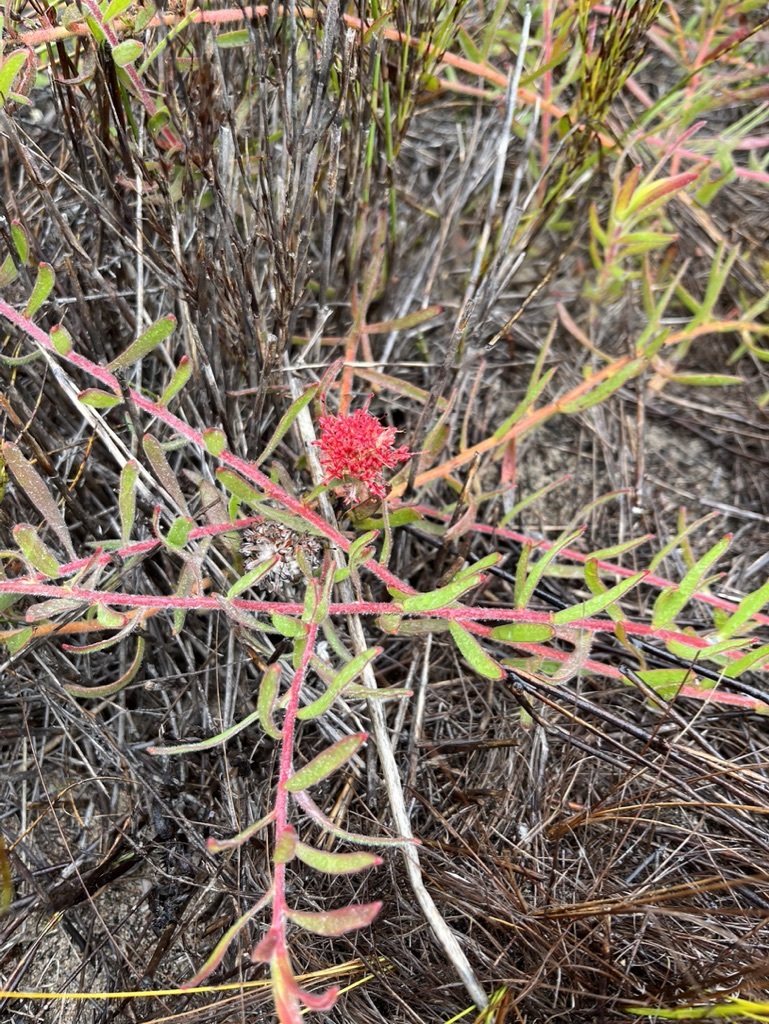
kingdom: Plantae
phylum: Tracheophyta
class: Magnoliopsida
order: Proteales
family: Proteaceae
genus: Leucospermum
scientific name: Leucospermum pedunculatum
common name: White-trailing pincushion
